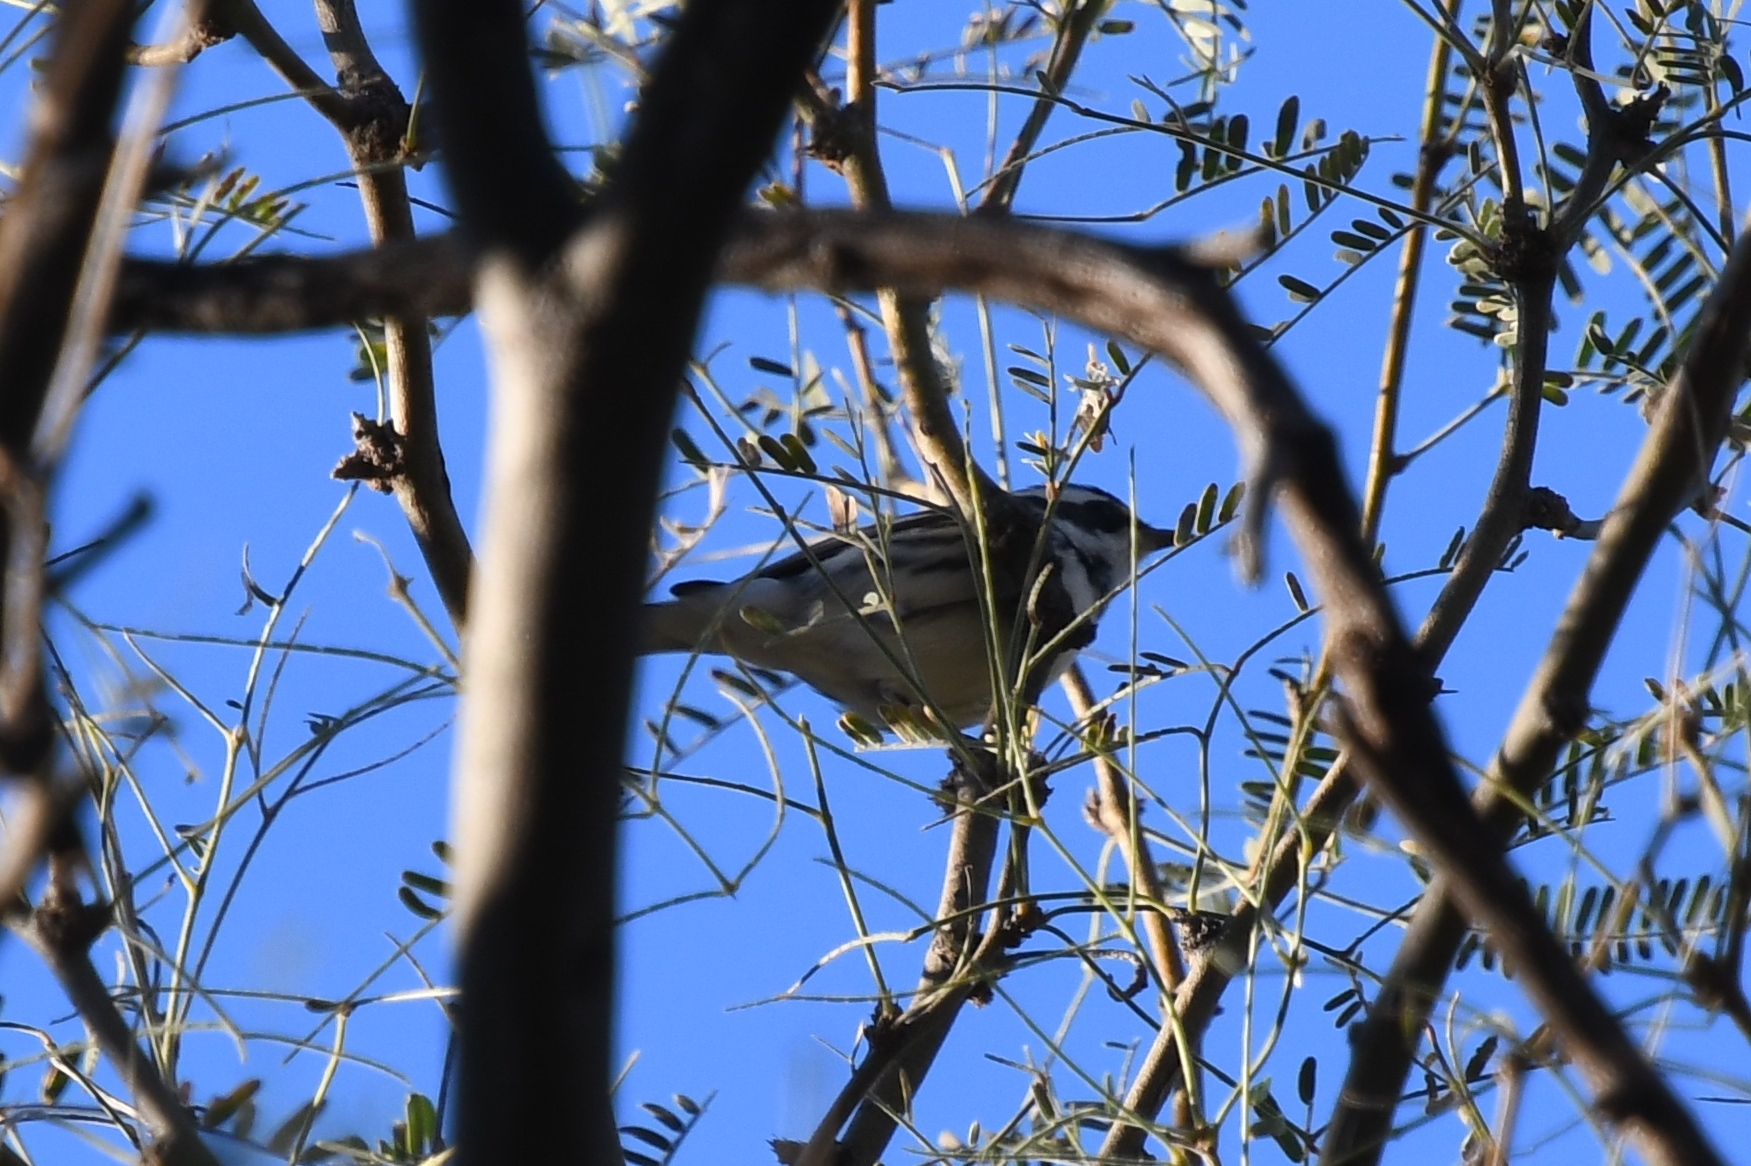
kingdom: Animalia
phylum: Chordata
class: Aves
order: Passeriformes
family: Parulidae
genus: Setophaga
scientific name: Setophaga nigrescens
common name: Black-throated gray warbler
